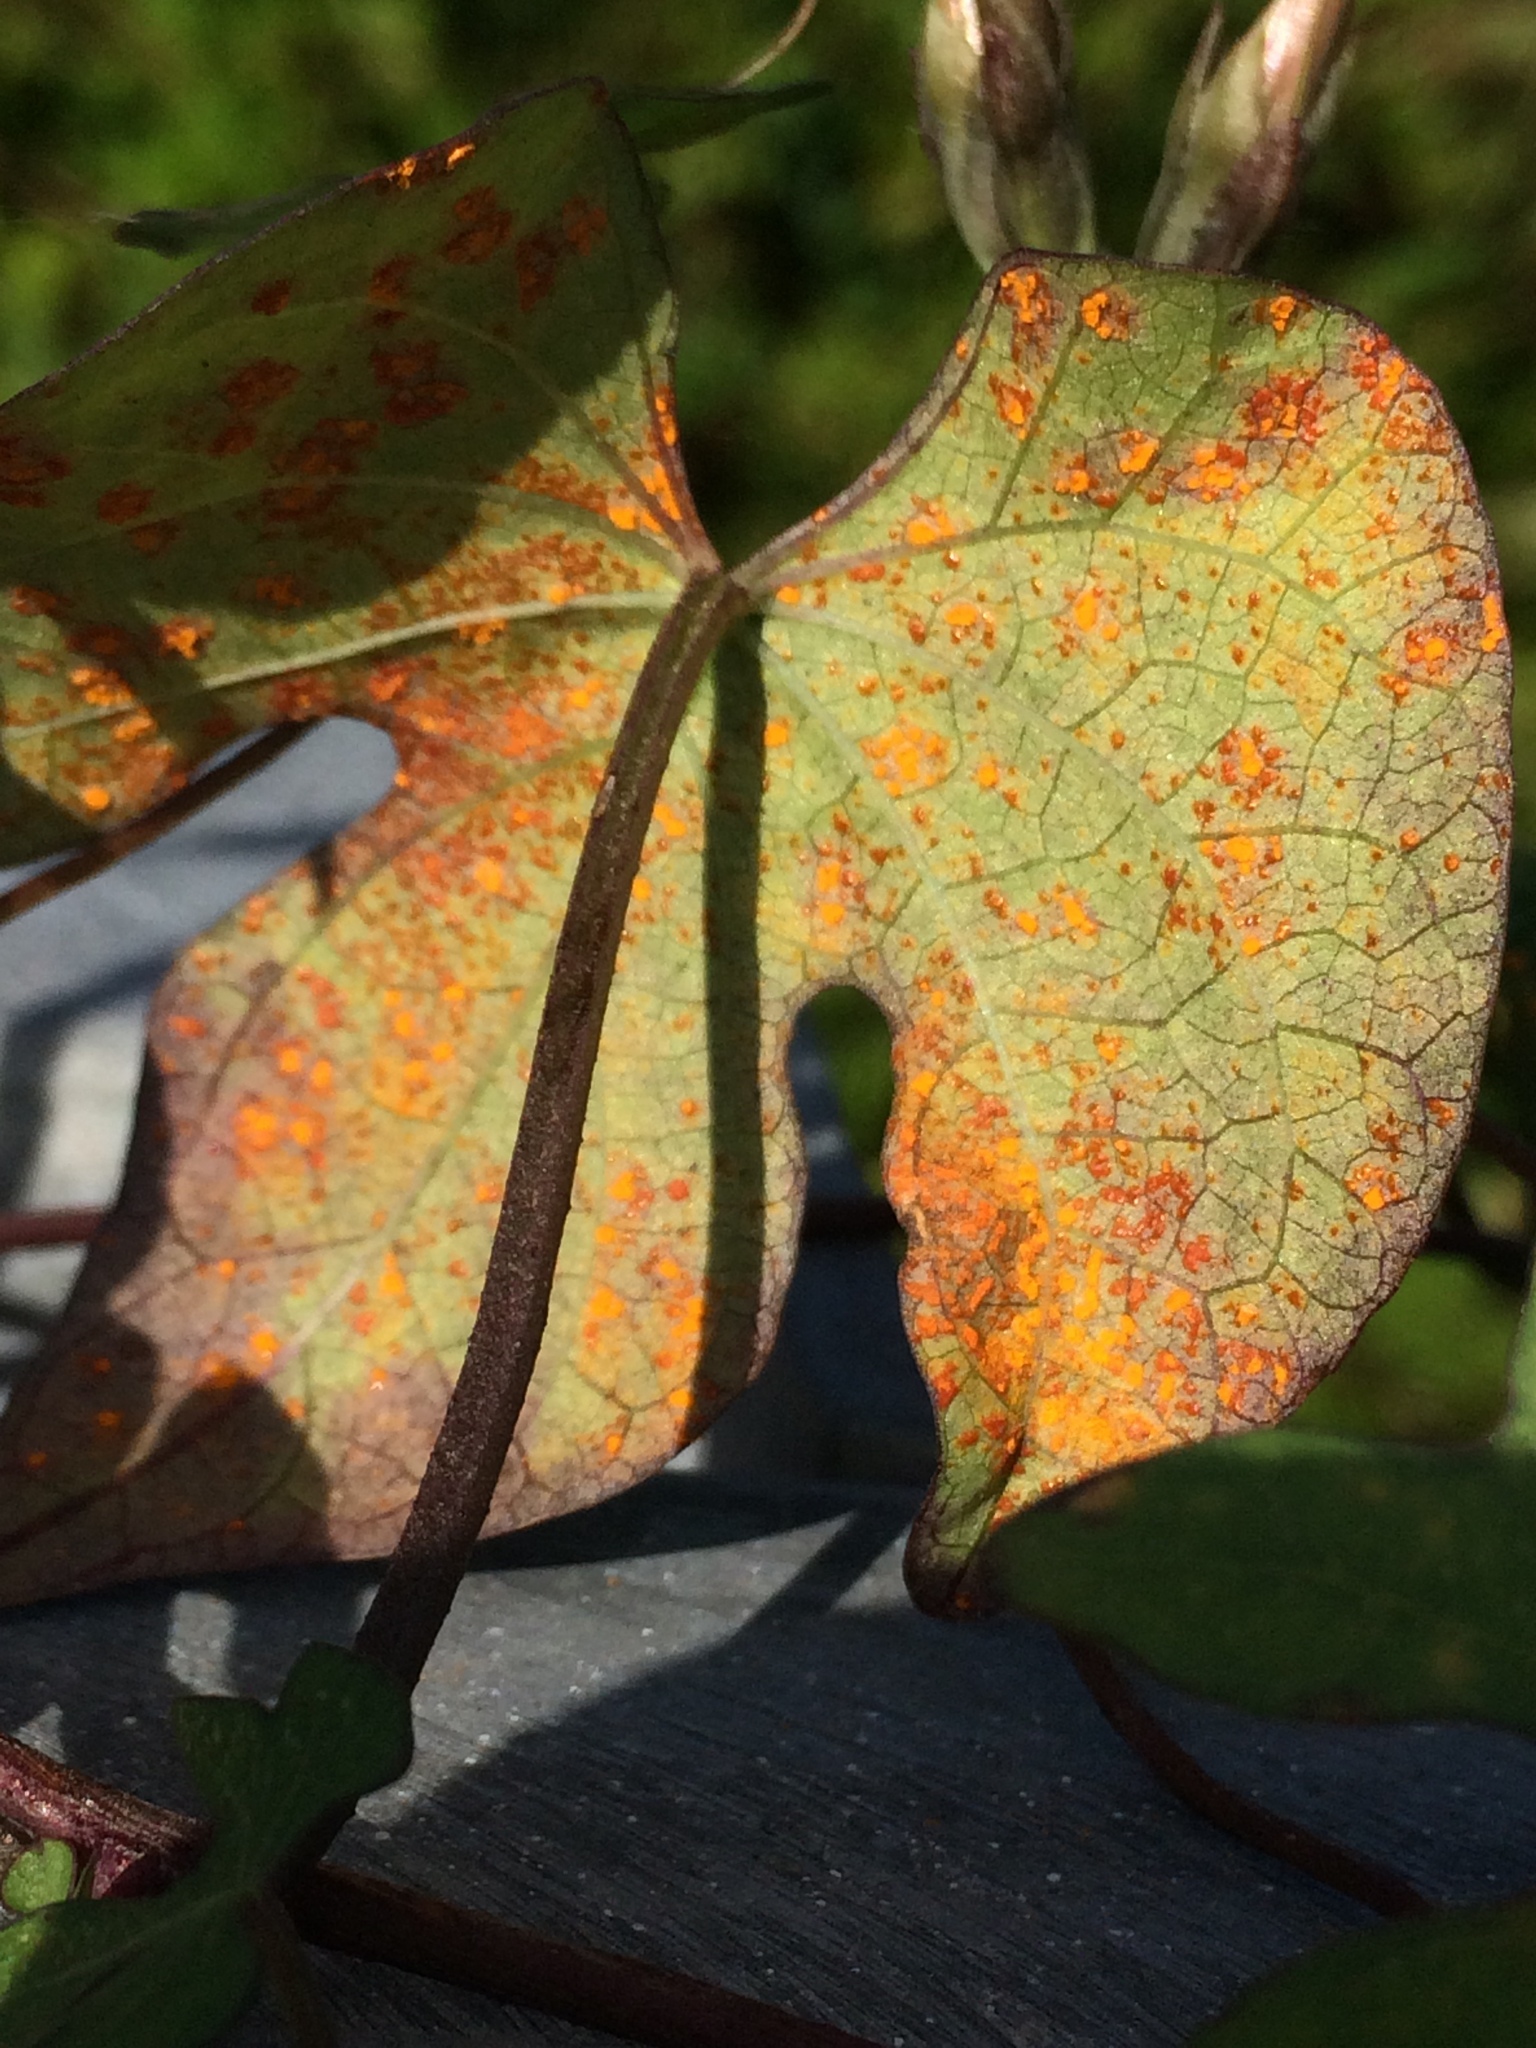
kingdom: Fungi
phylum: Basidiomycota
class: Pucciniomycetes
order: Pucciniales
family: Coleosporiaceae
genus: Coleosporium
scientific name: Coleosporium ipomoeae
